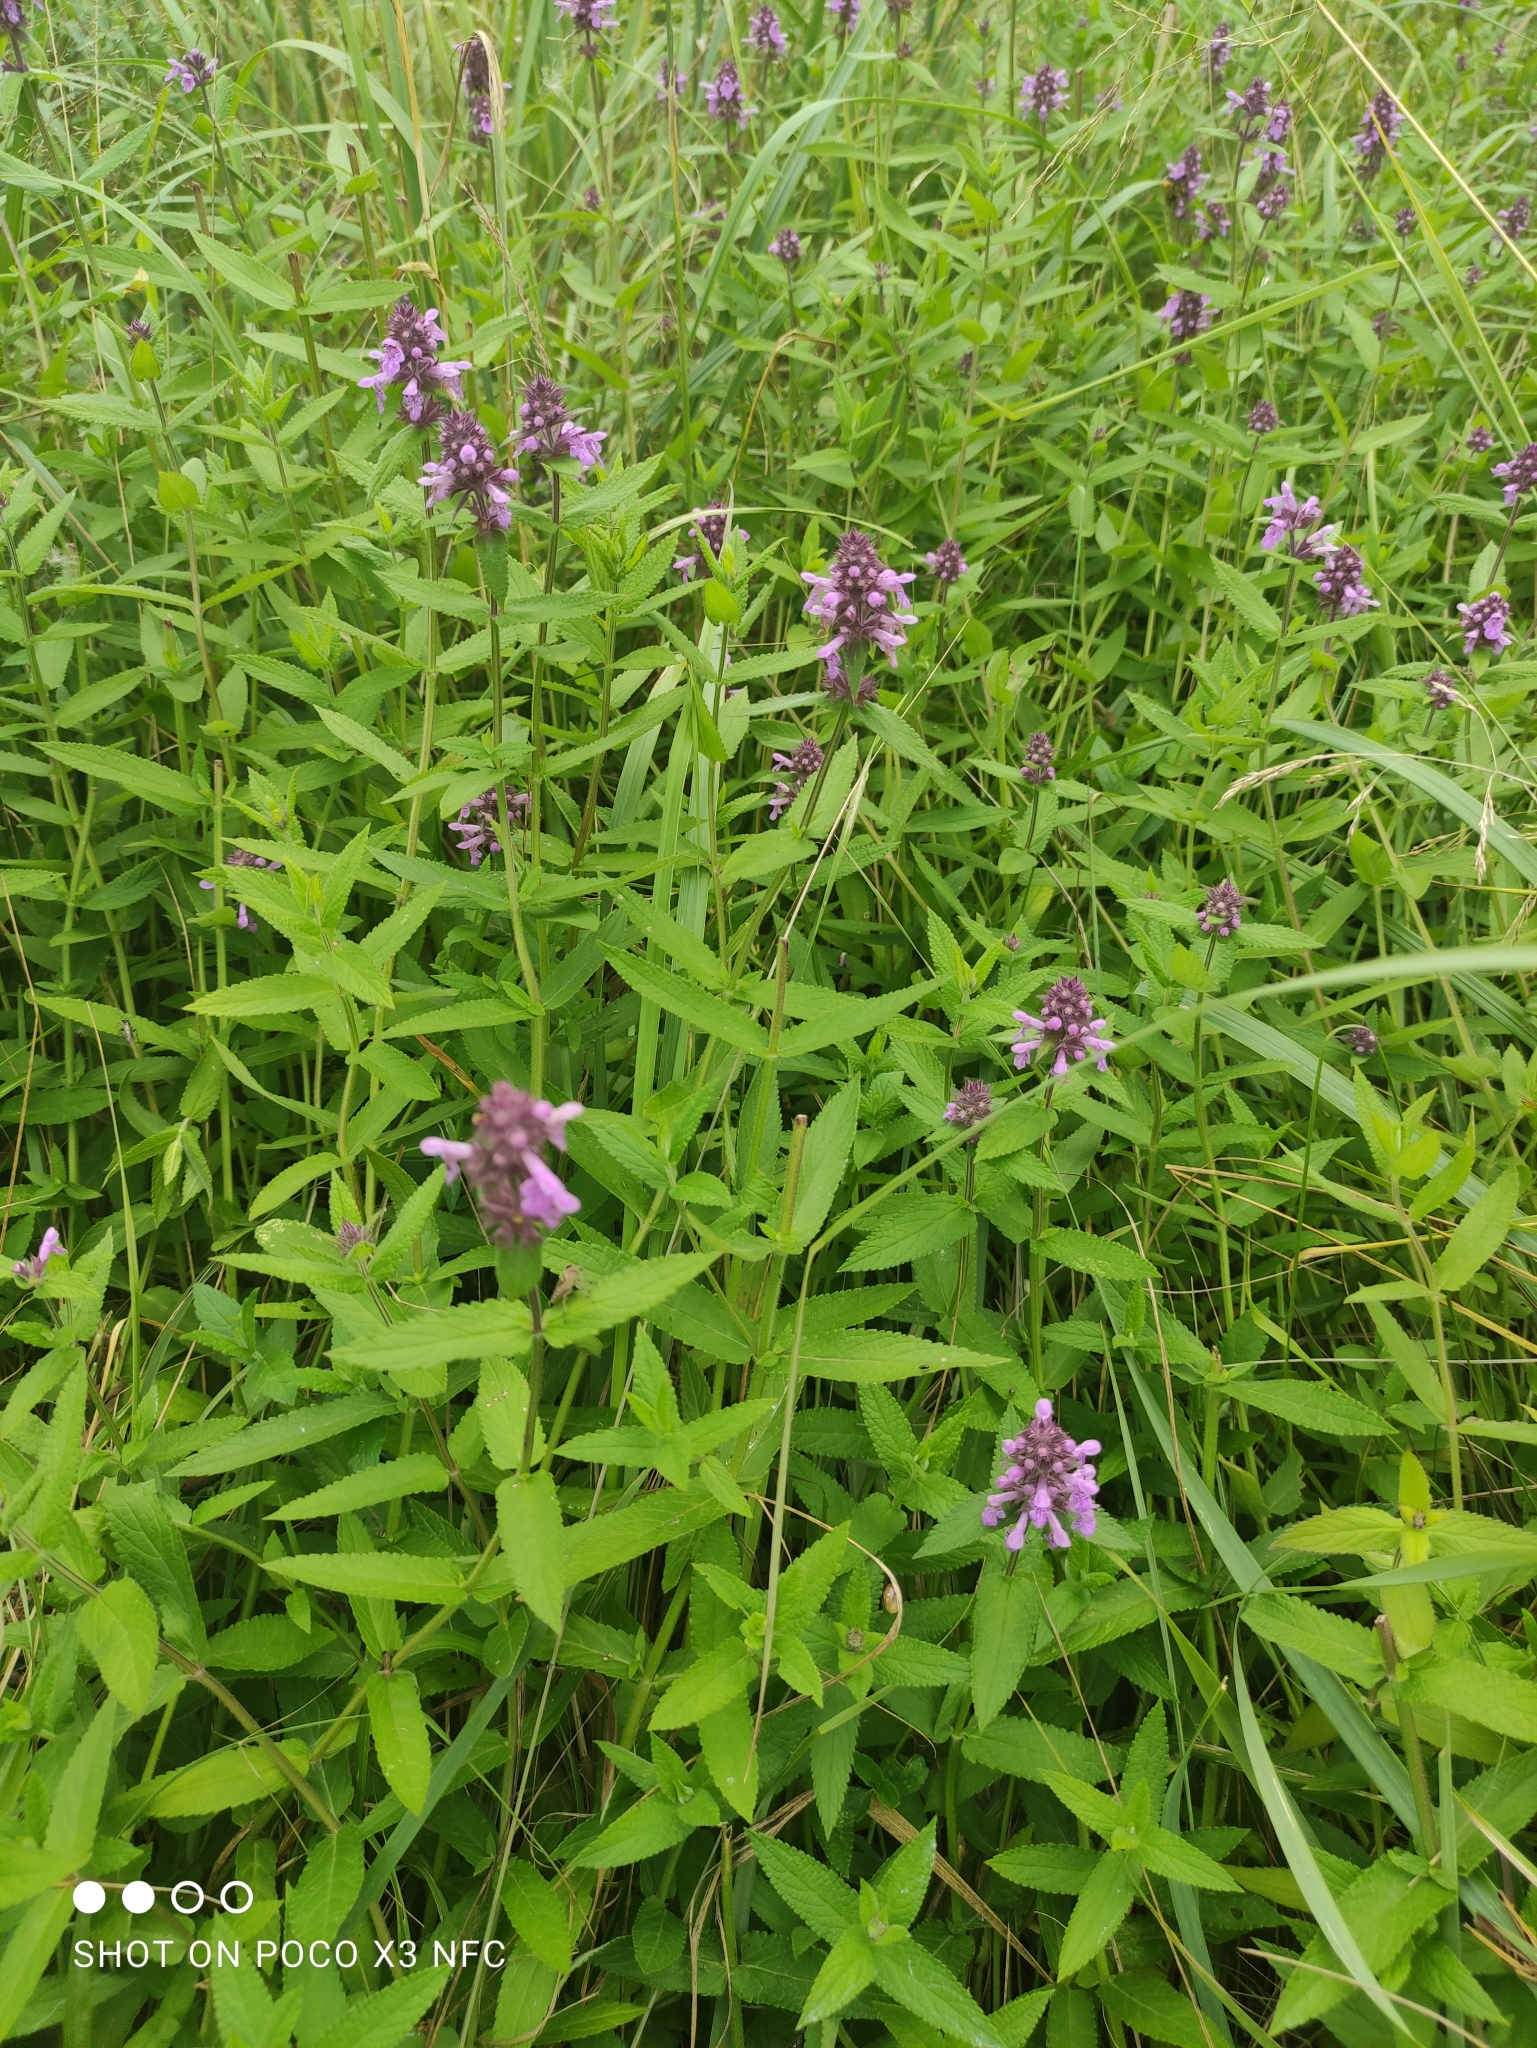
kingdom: Plantae
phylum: Tracheophyta
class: Magnoliopsida
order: Lamiales
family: Lamiaceae
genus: Stachys
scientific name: Stachys palustris
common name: Marsh woundwort
